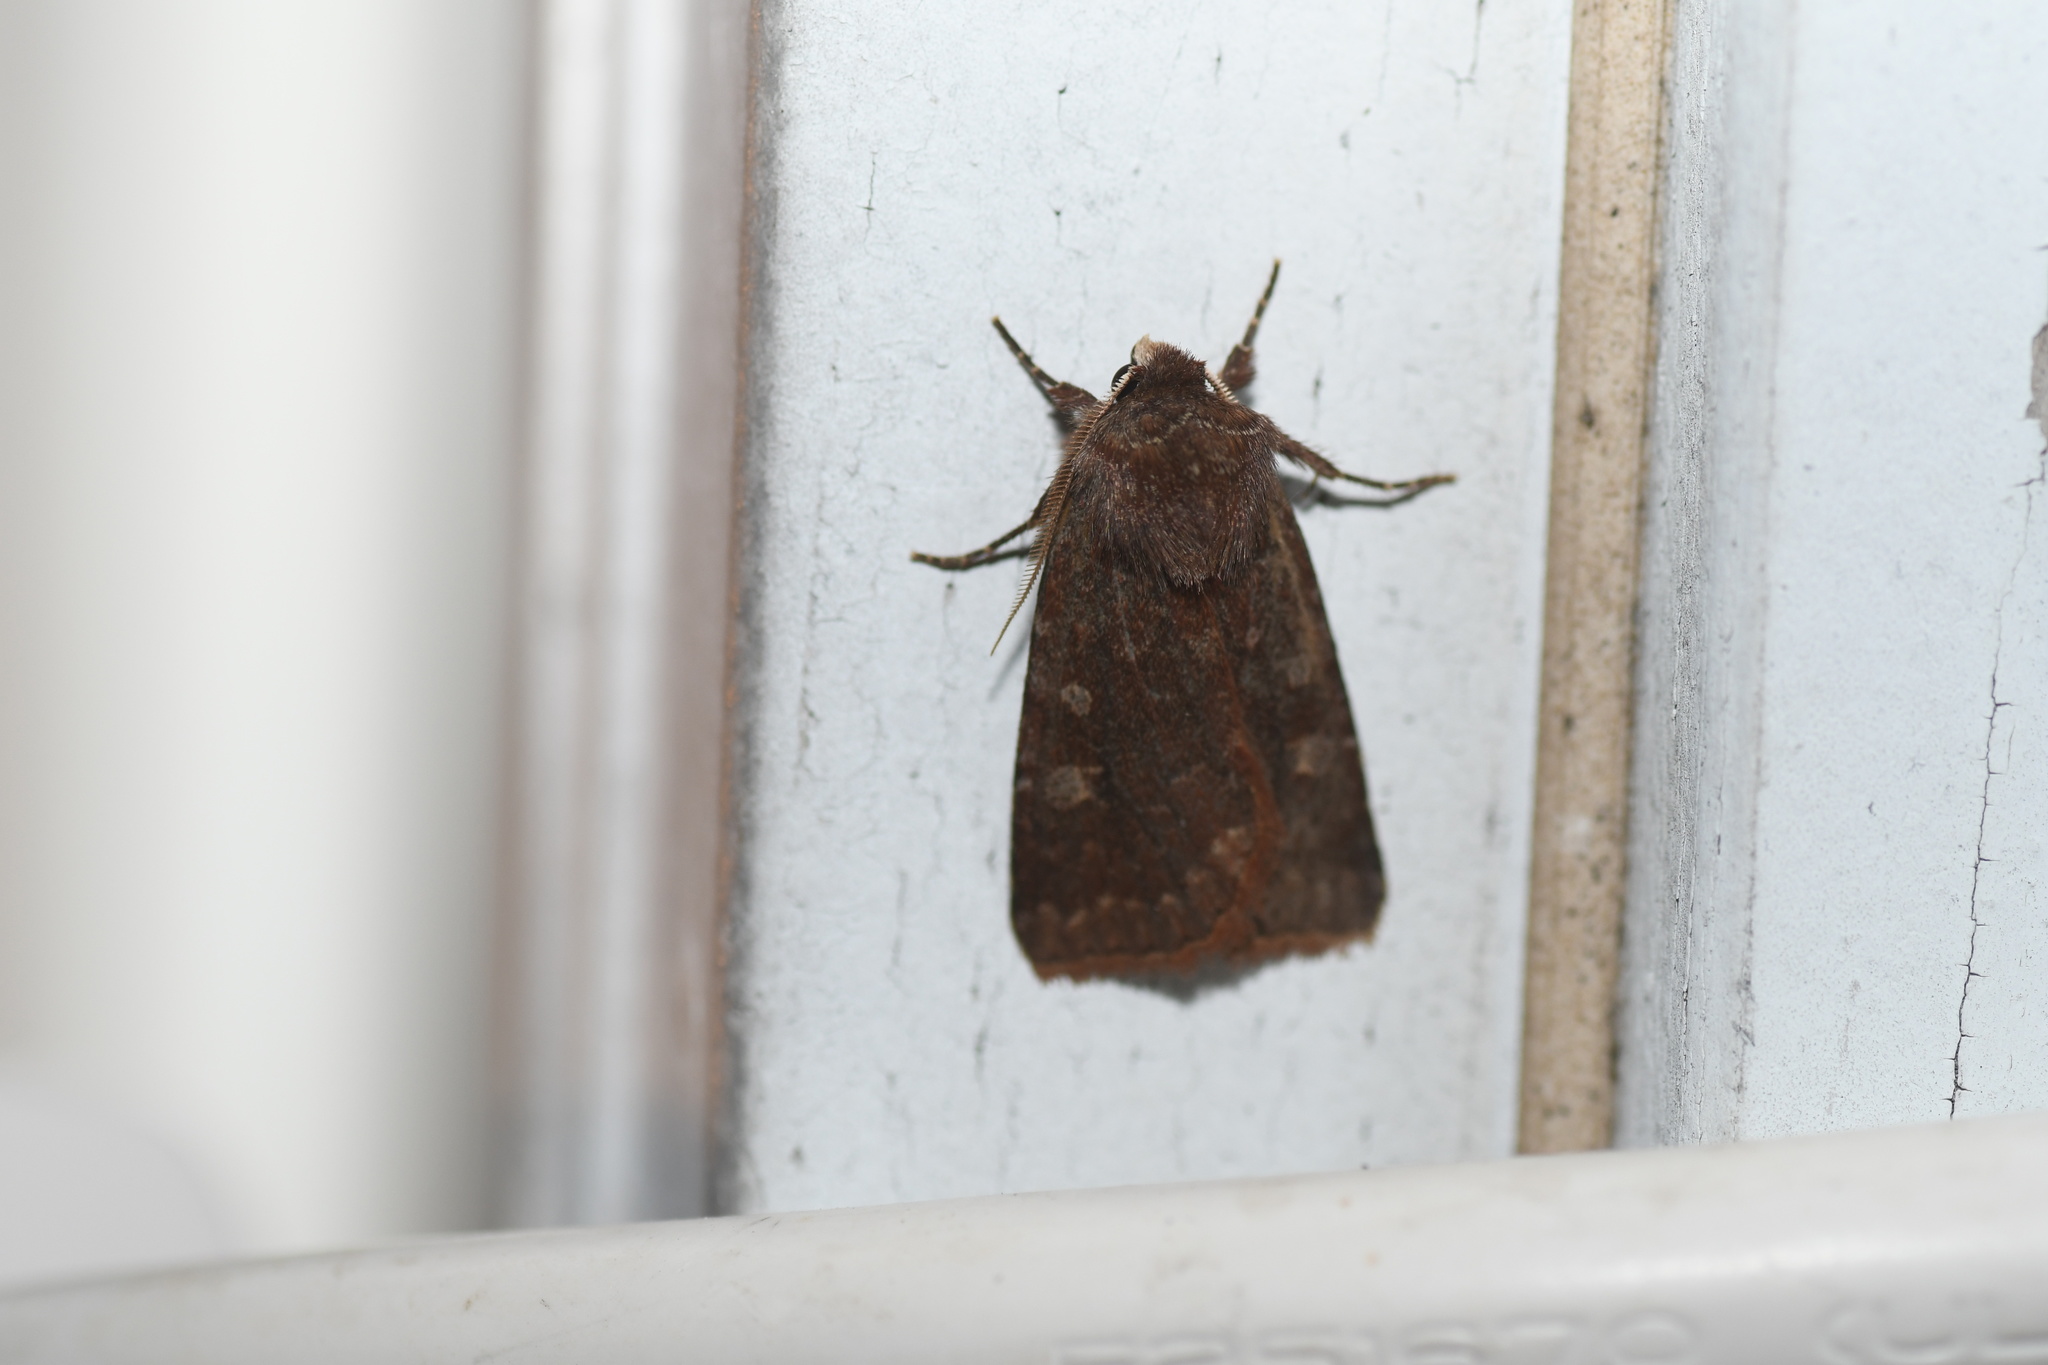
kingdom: Animalia
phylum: Arthropoda
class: Insecta
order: Lepidoptera
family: Noctuidae
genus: Cerastis
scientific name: Cerastis tenebrifera
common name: Reddish speckled dart
